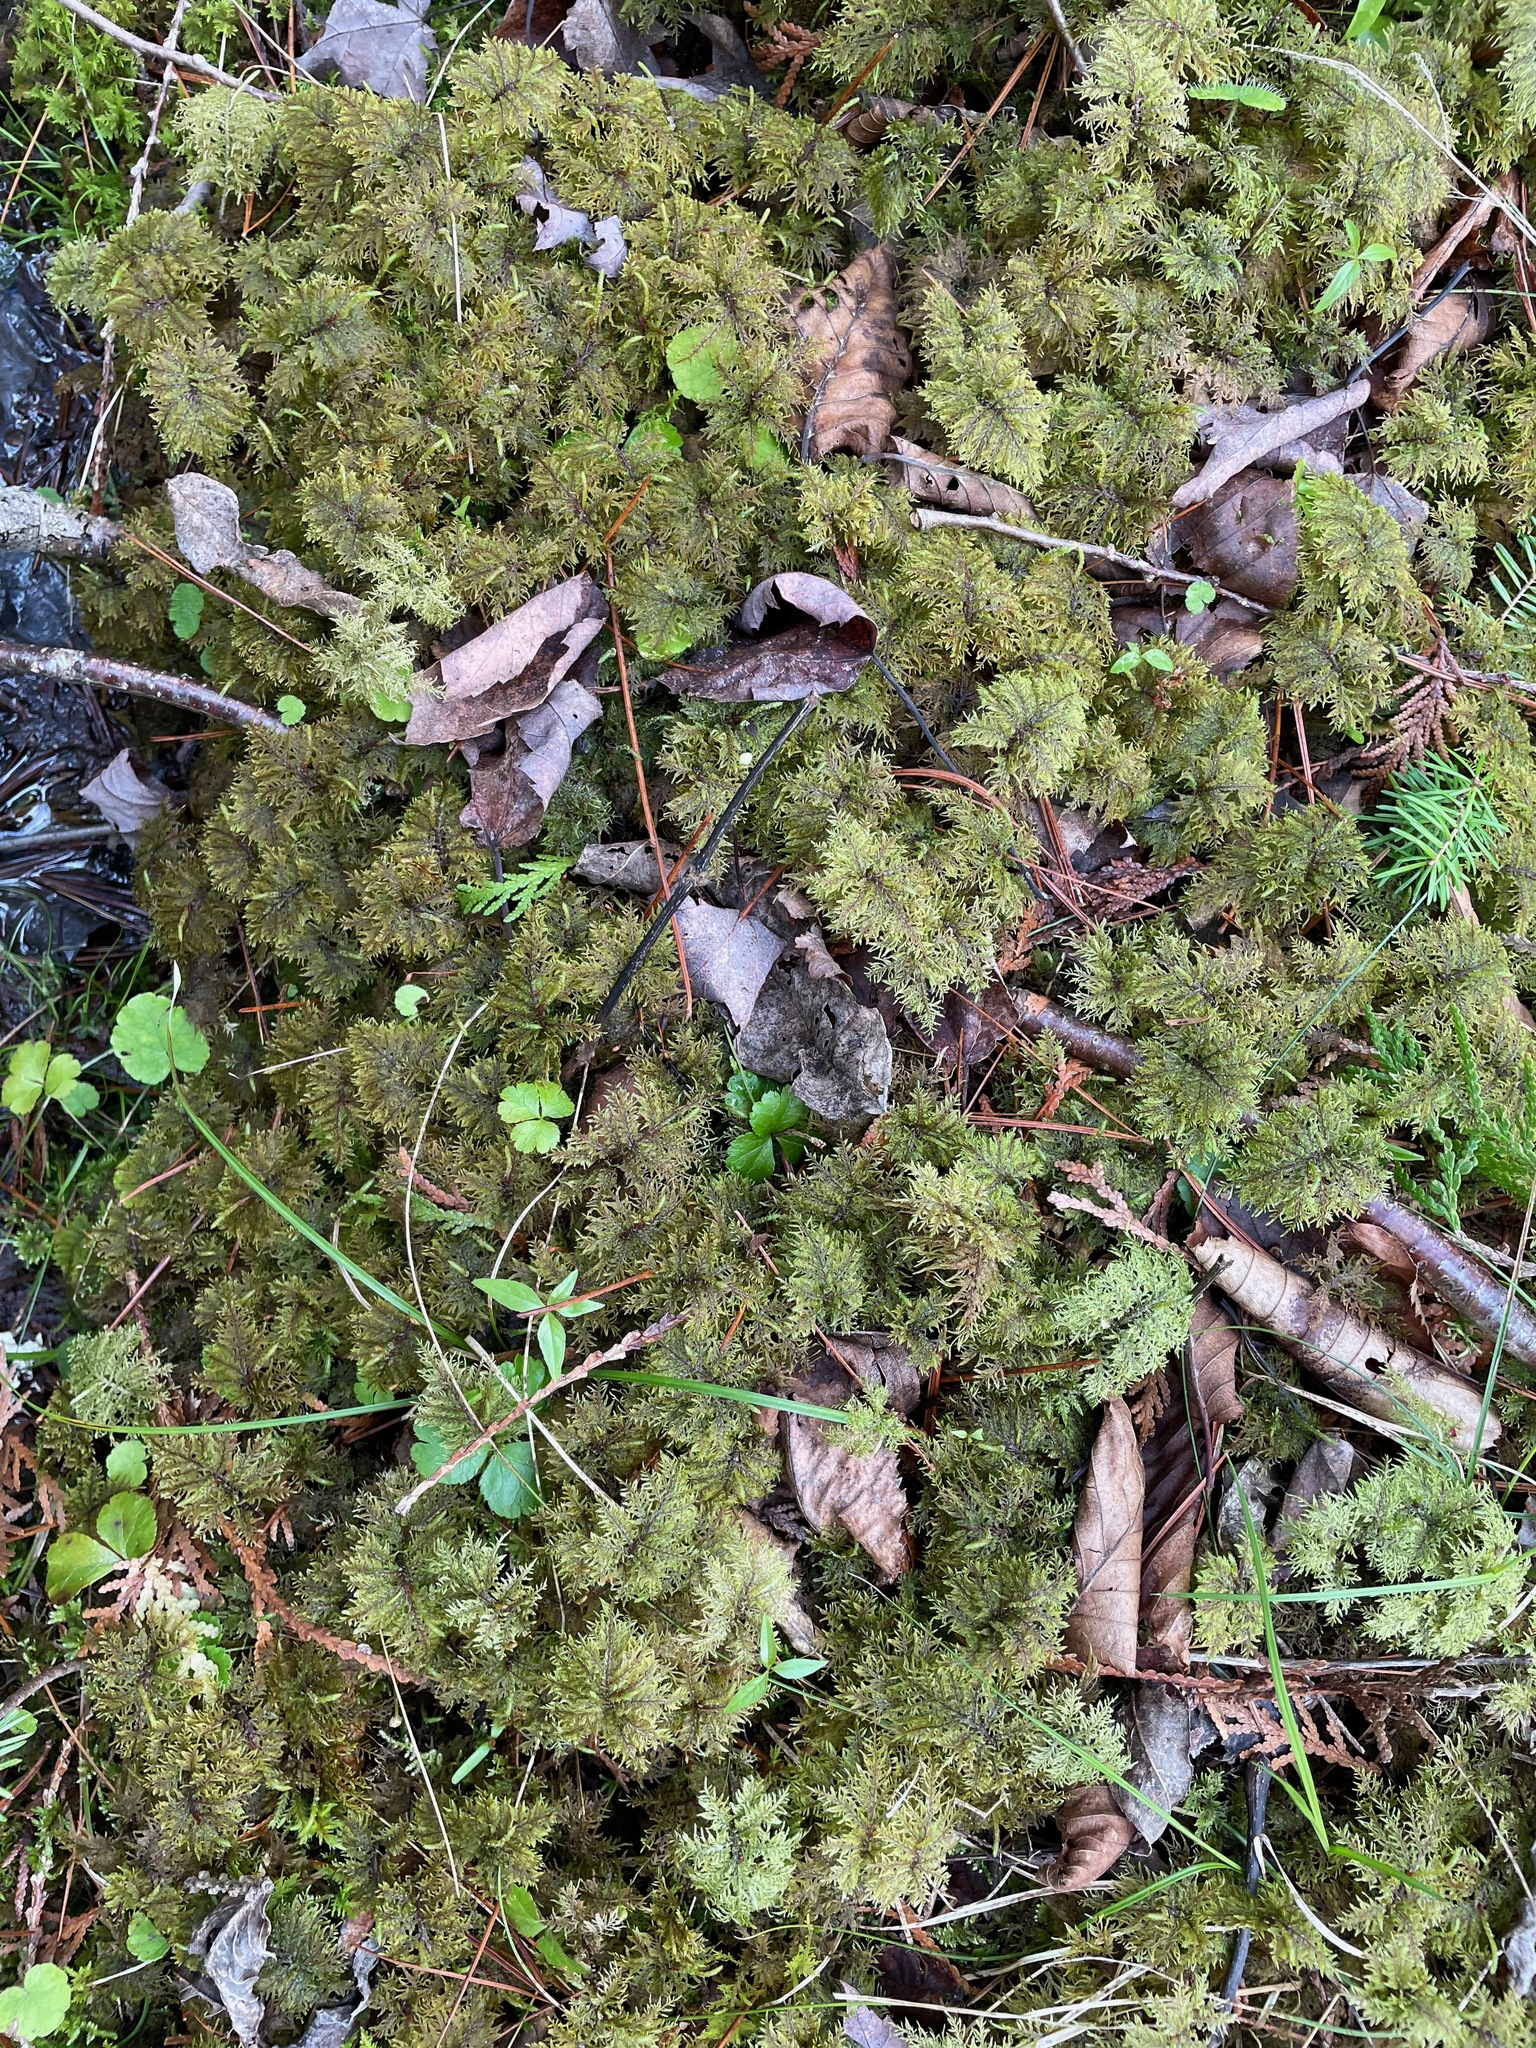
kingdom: Plantae
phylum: Bryophyta
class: Bryopsida
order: Hypnales
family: Hylocomiaceae
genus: Hylocomium
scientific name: Hylocomium splendens
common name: Stairstep moss
